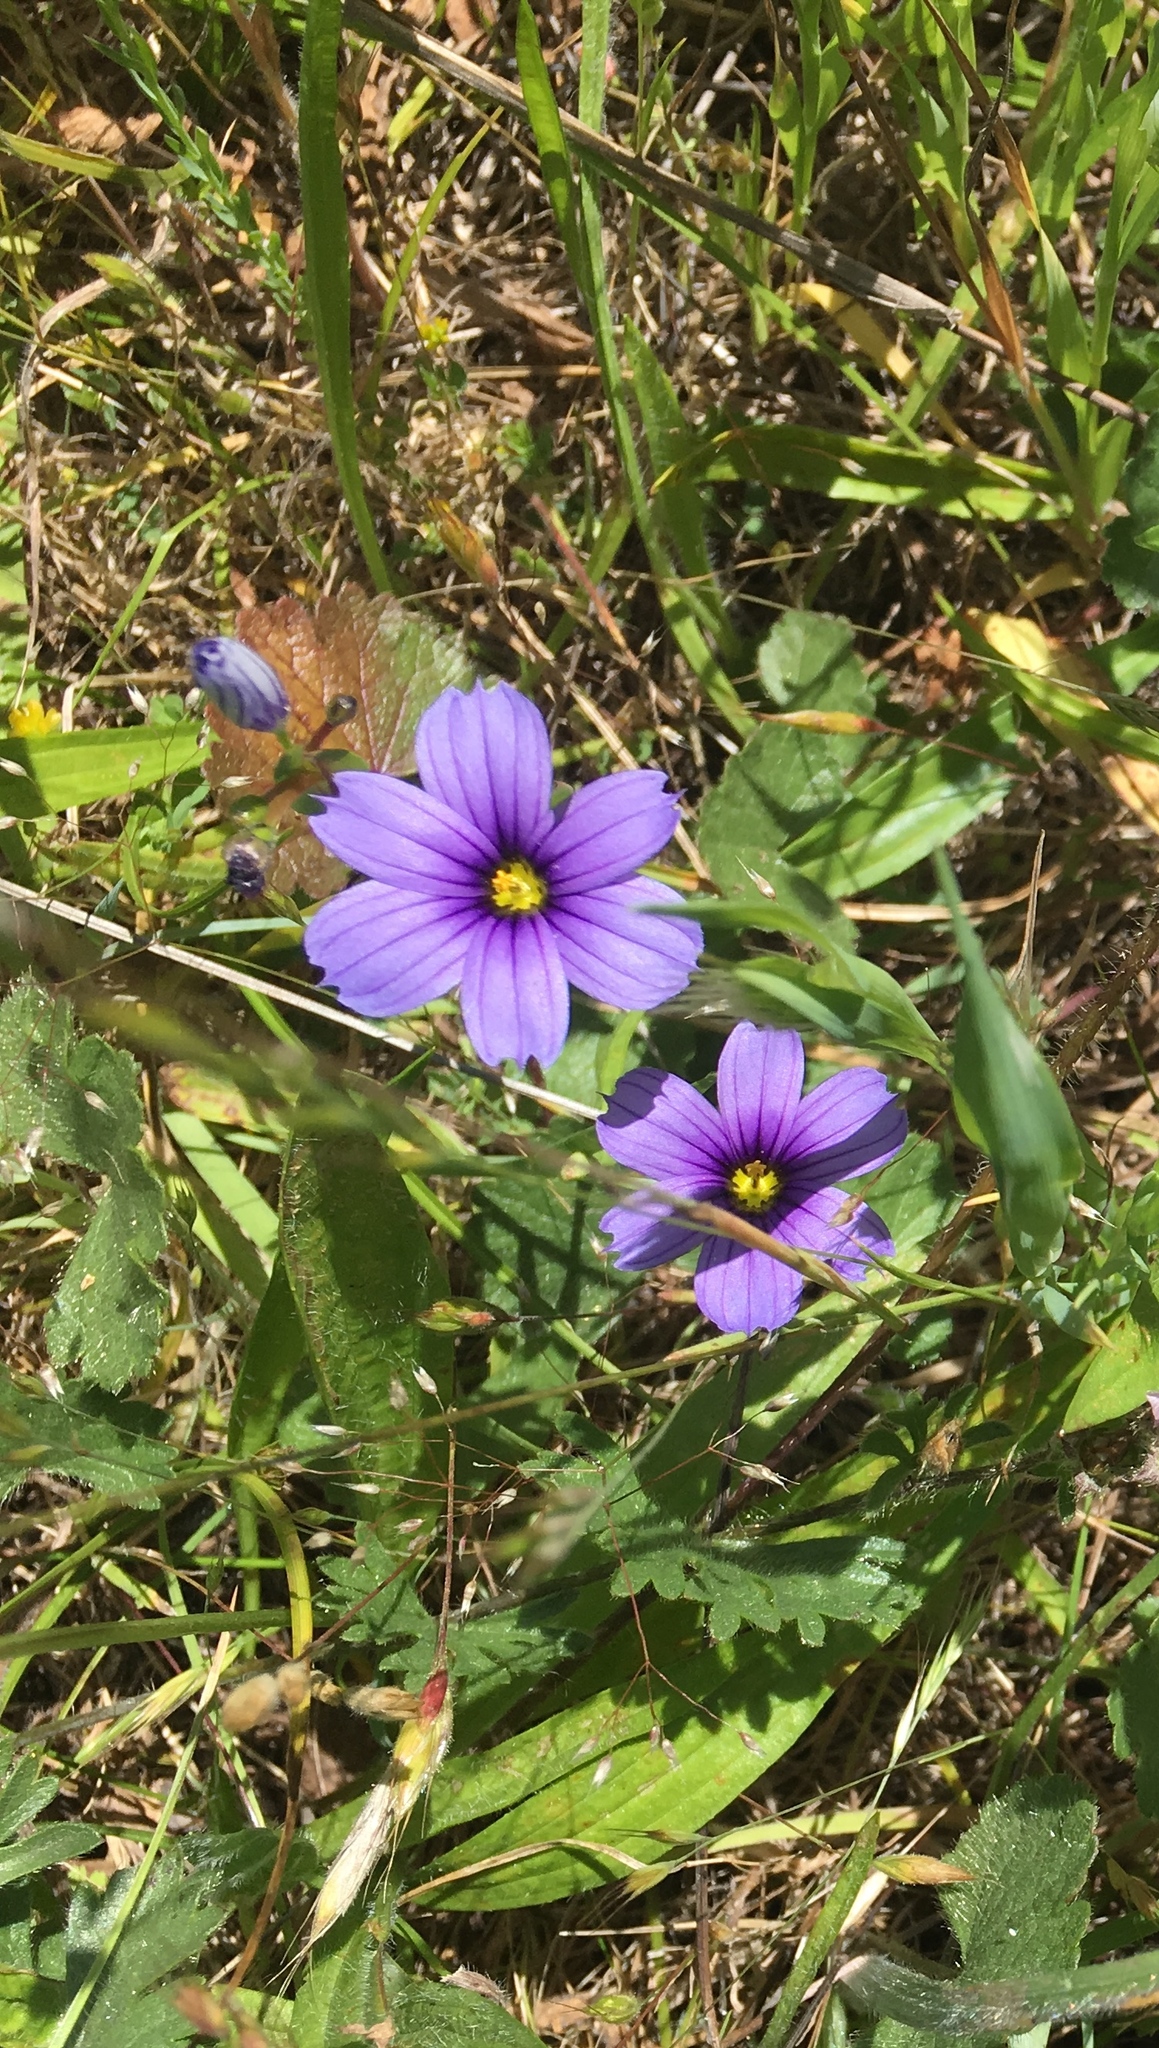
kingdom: Plantae
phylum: Tracheophyta
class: Liliopsida
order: Asparagales
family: Iridaceae
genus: Sisyrinchium
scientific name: Sisyrinchium bellum
